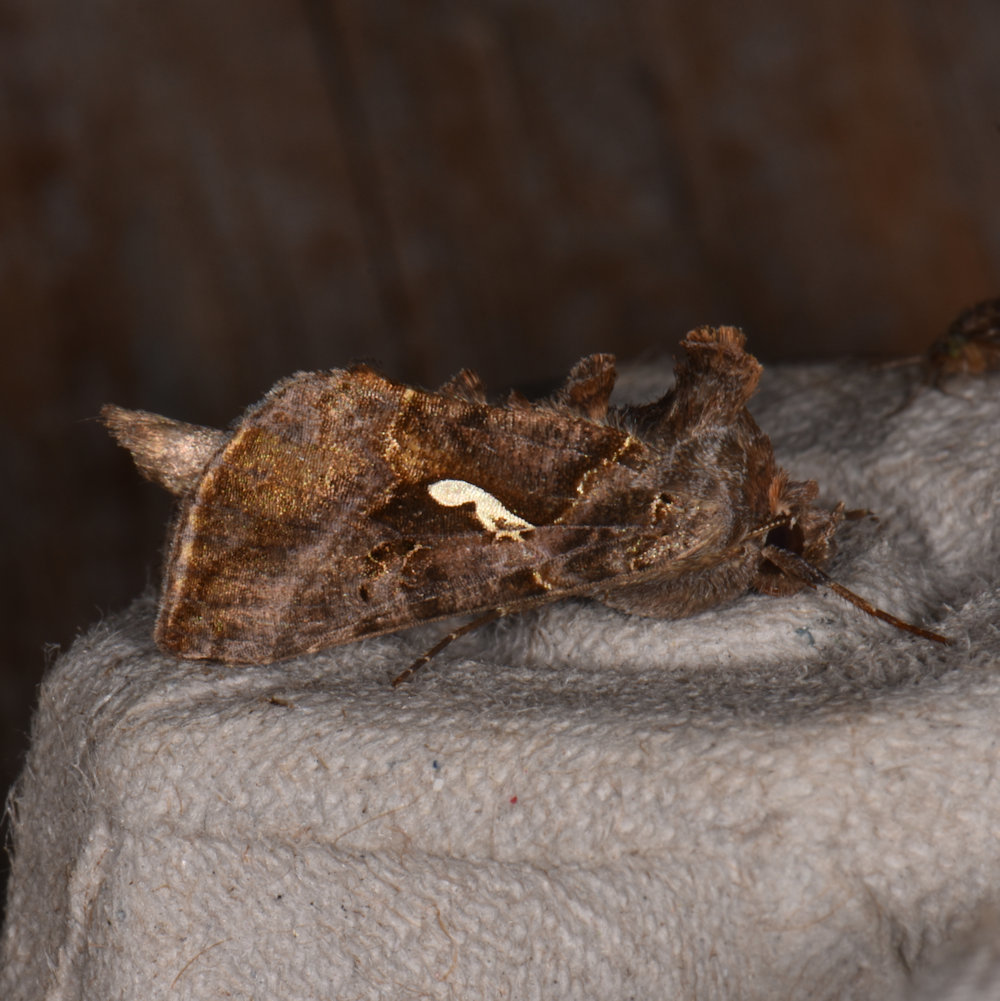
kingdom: Animalia
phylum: Arthropoda
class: Insecta
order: Lepidoptera
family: Noctuidae
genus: Autographa
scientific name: Autographa precationis
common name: Common looper moth
